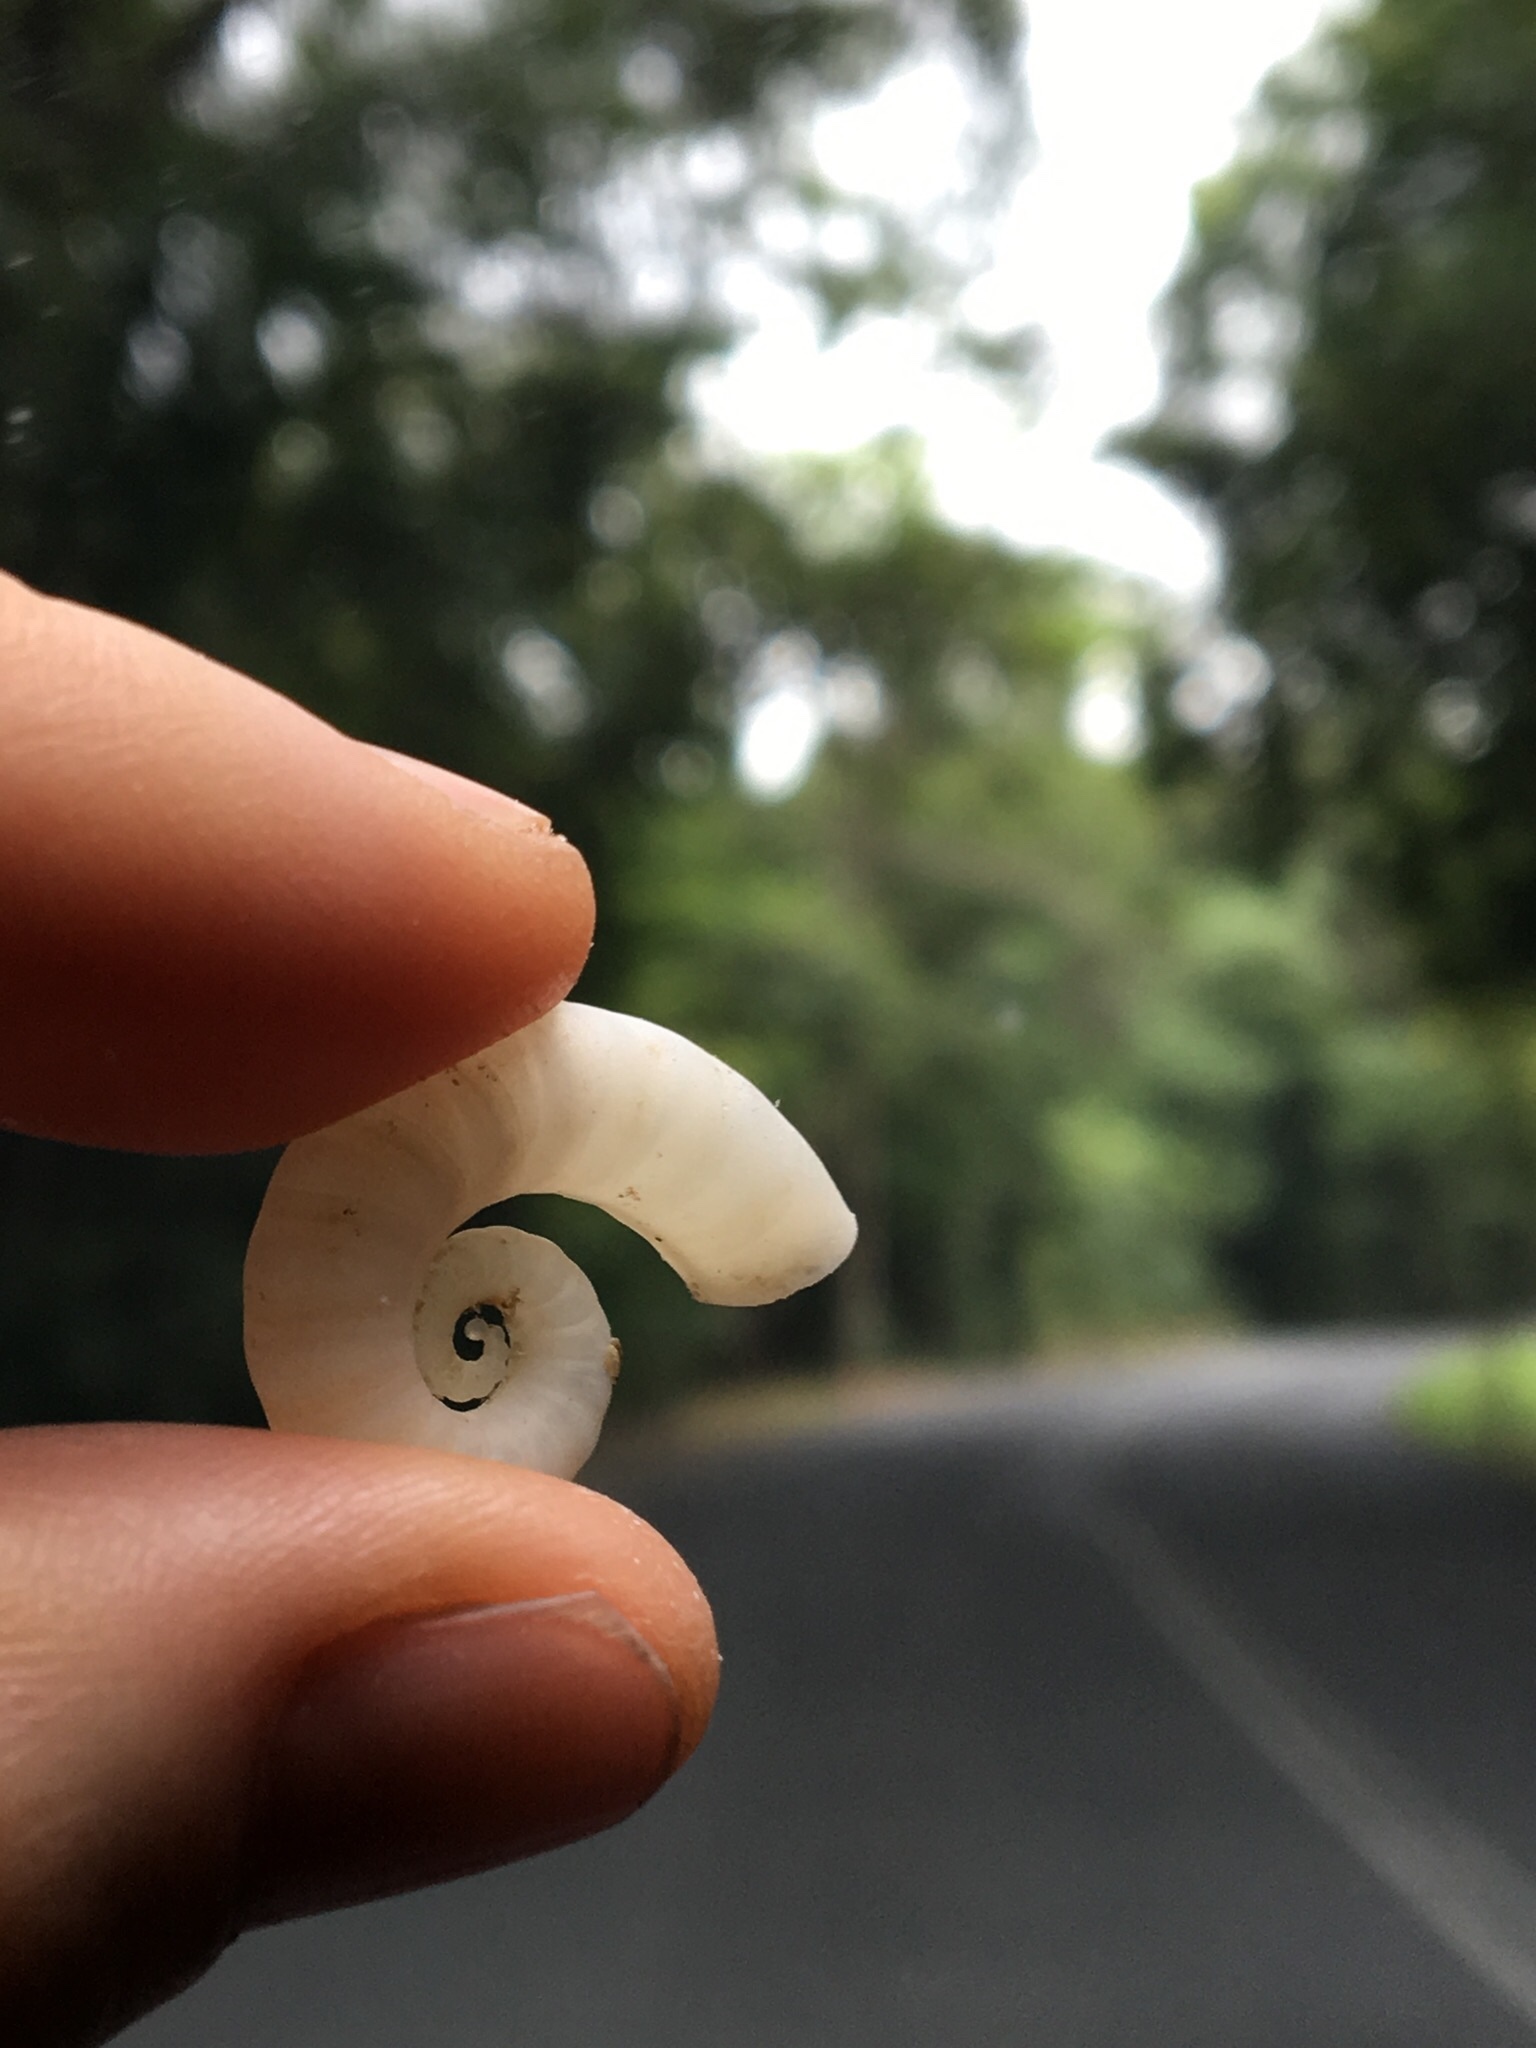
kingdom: Animalia
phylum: Mollusca
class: Cephalopoda
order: Spirulida
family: Spirulidae
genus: Spirula
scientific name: Spirula spirula
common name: Ram's horn squid
